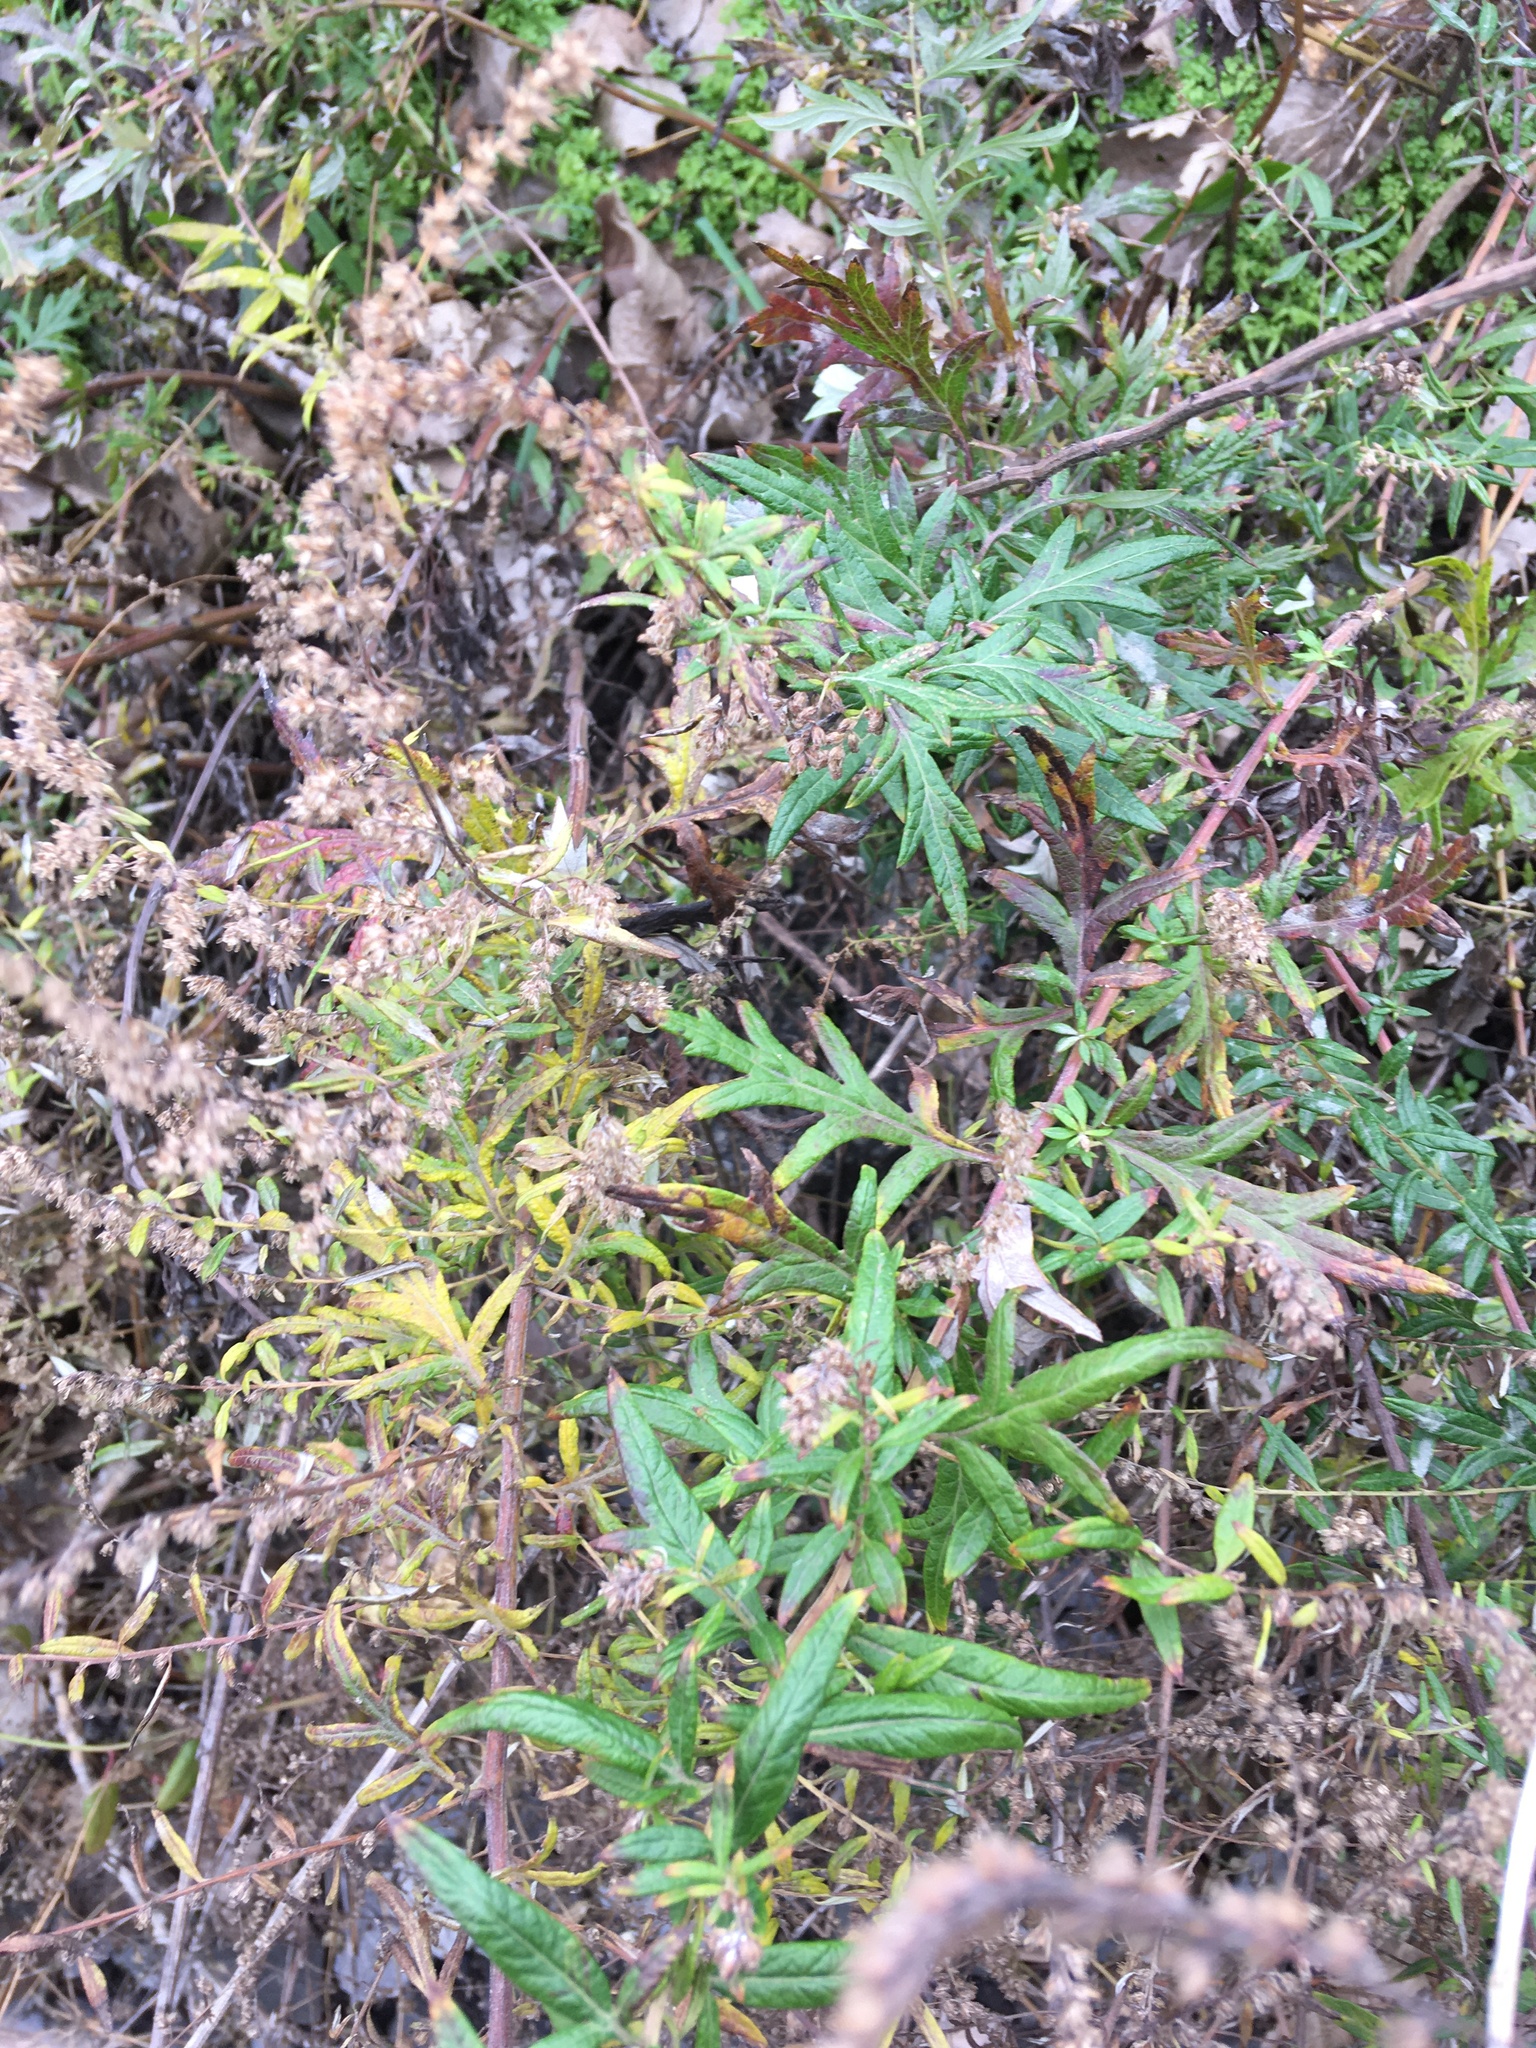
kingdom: Plantae
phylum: Tracheophyta
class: Magnoliopsida
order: Asterales
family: Asteraceae
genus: Artemisia
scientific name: Artemisia vulgaris
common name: Mugwort
